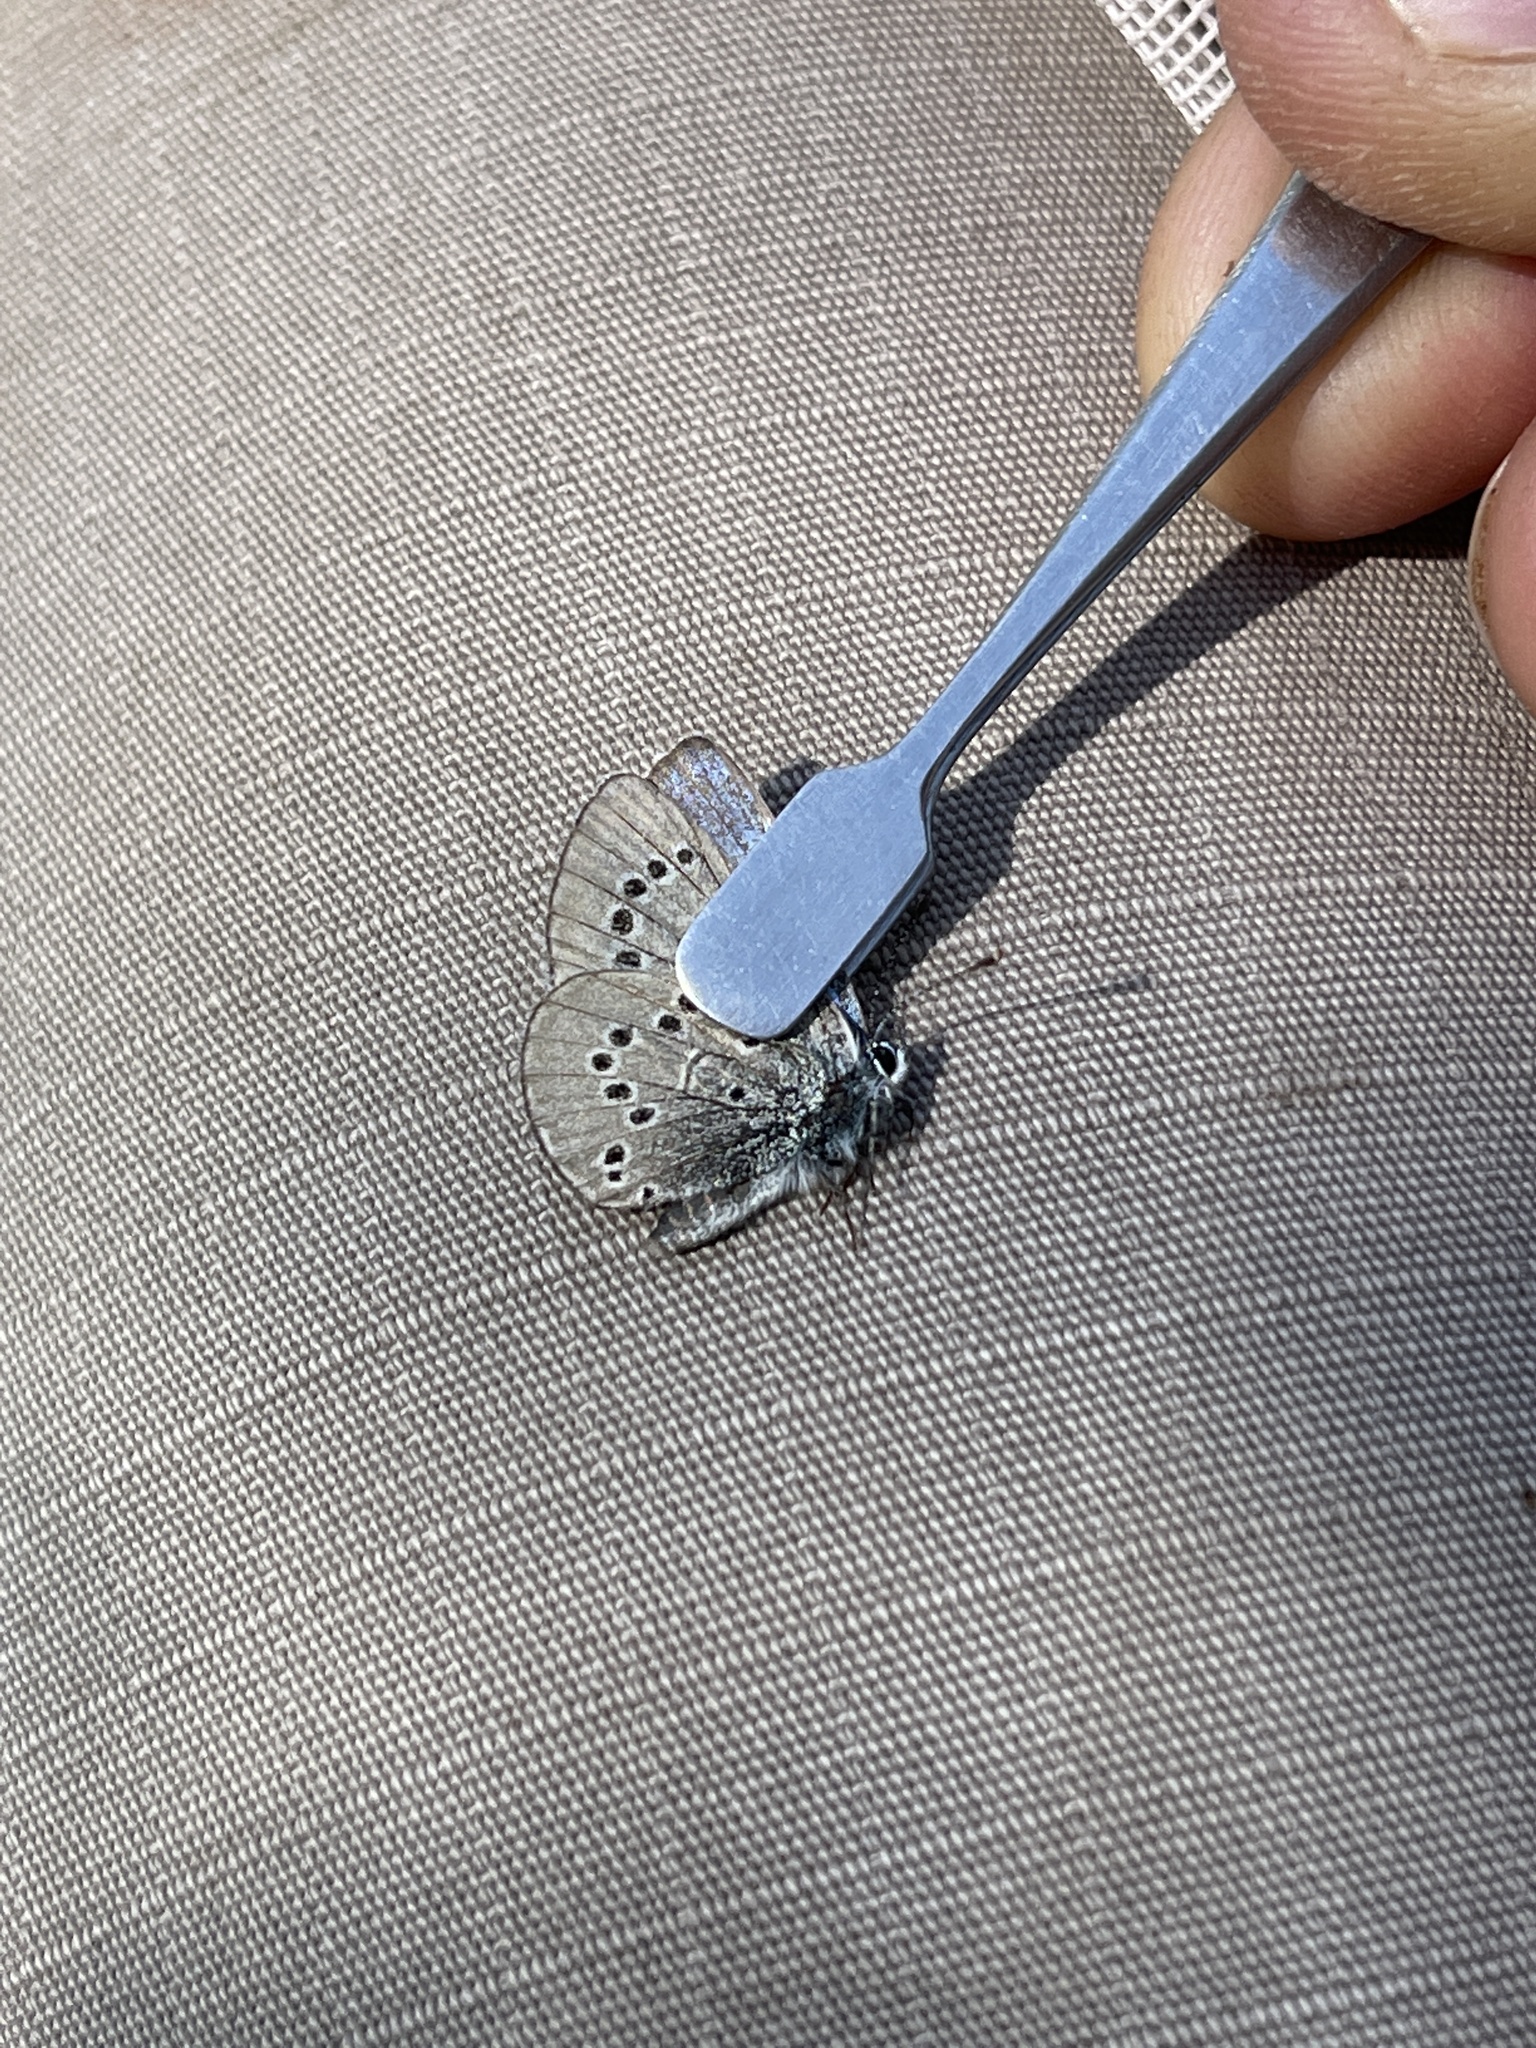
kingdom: Animalia
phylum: Arthropoda
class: Insecta
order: Lepidoptera
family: Lycaenidae
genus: Glaucopsyche
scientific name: Glaucopsyche lygdamus
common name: Silvery blue
